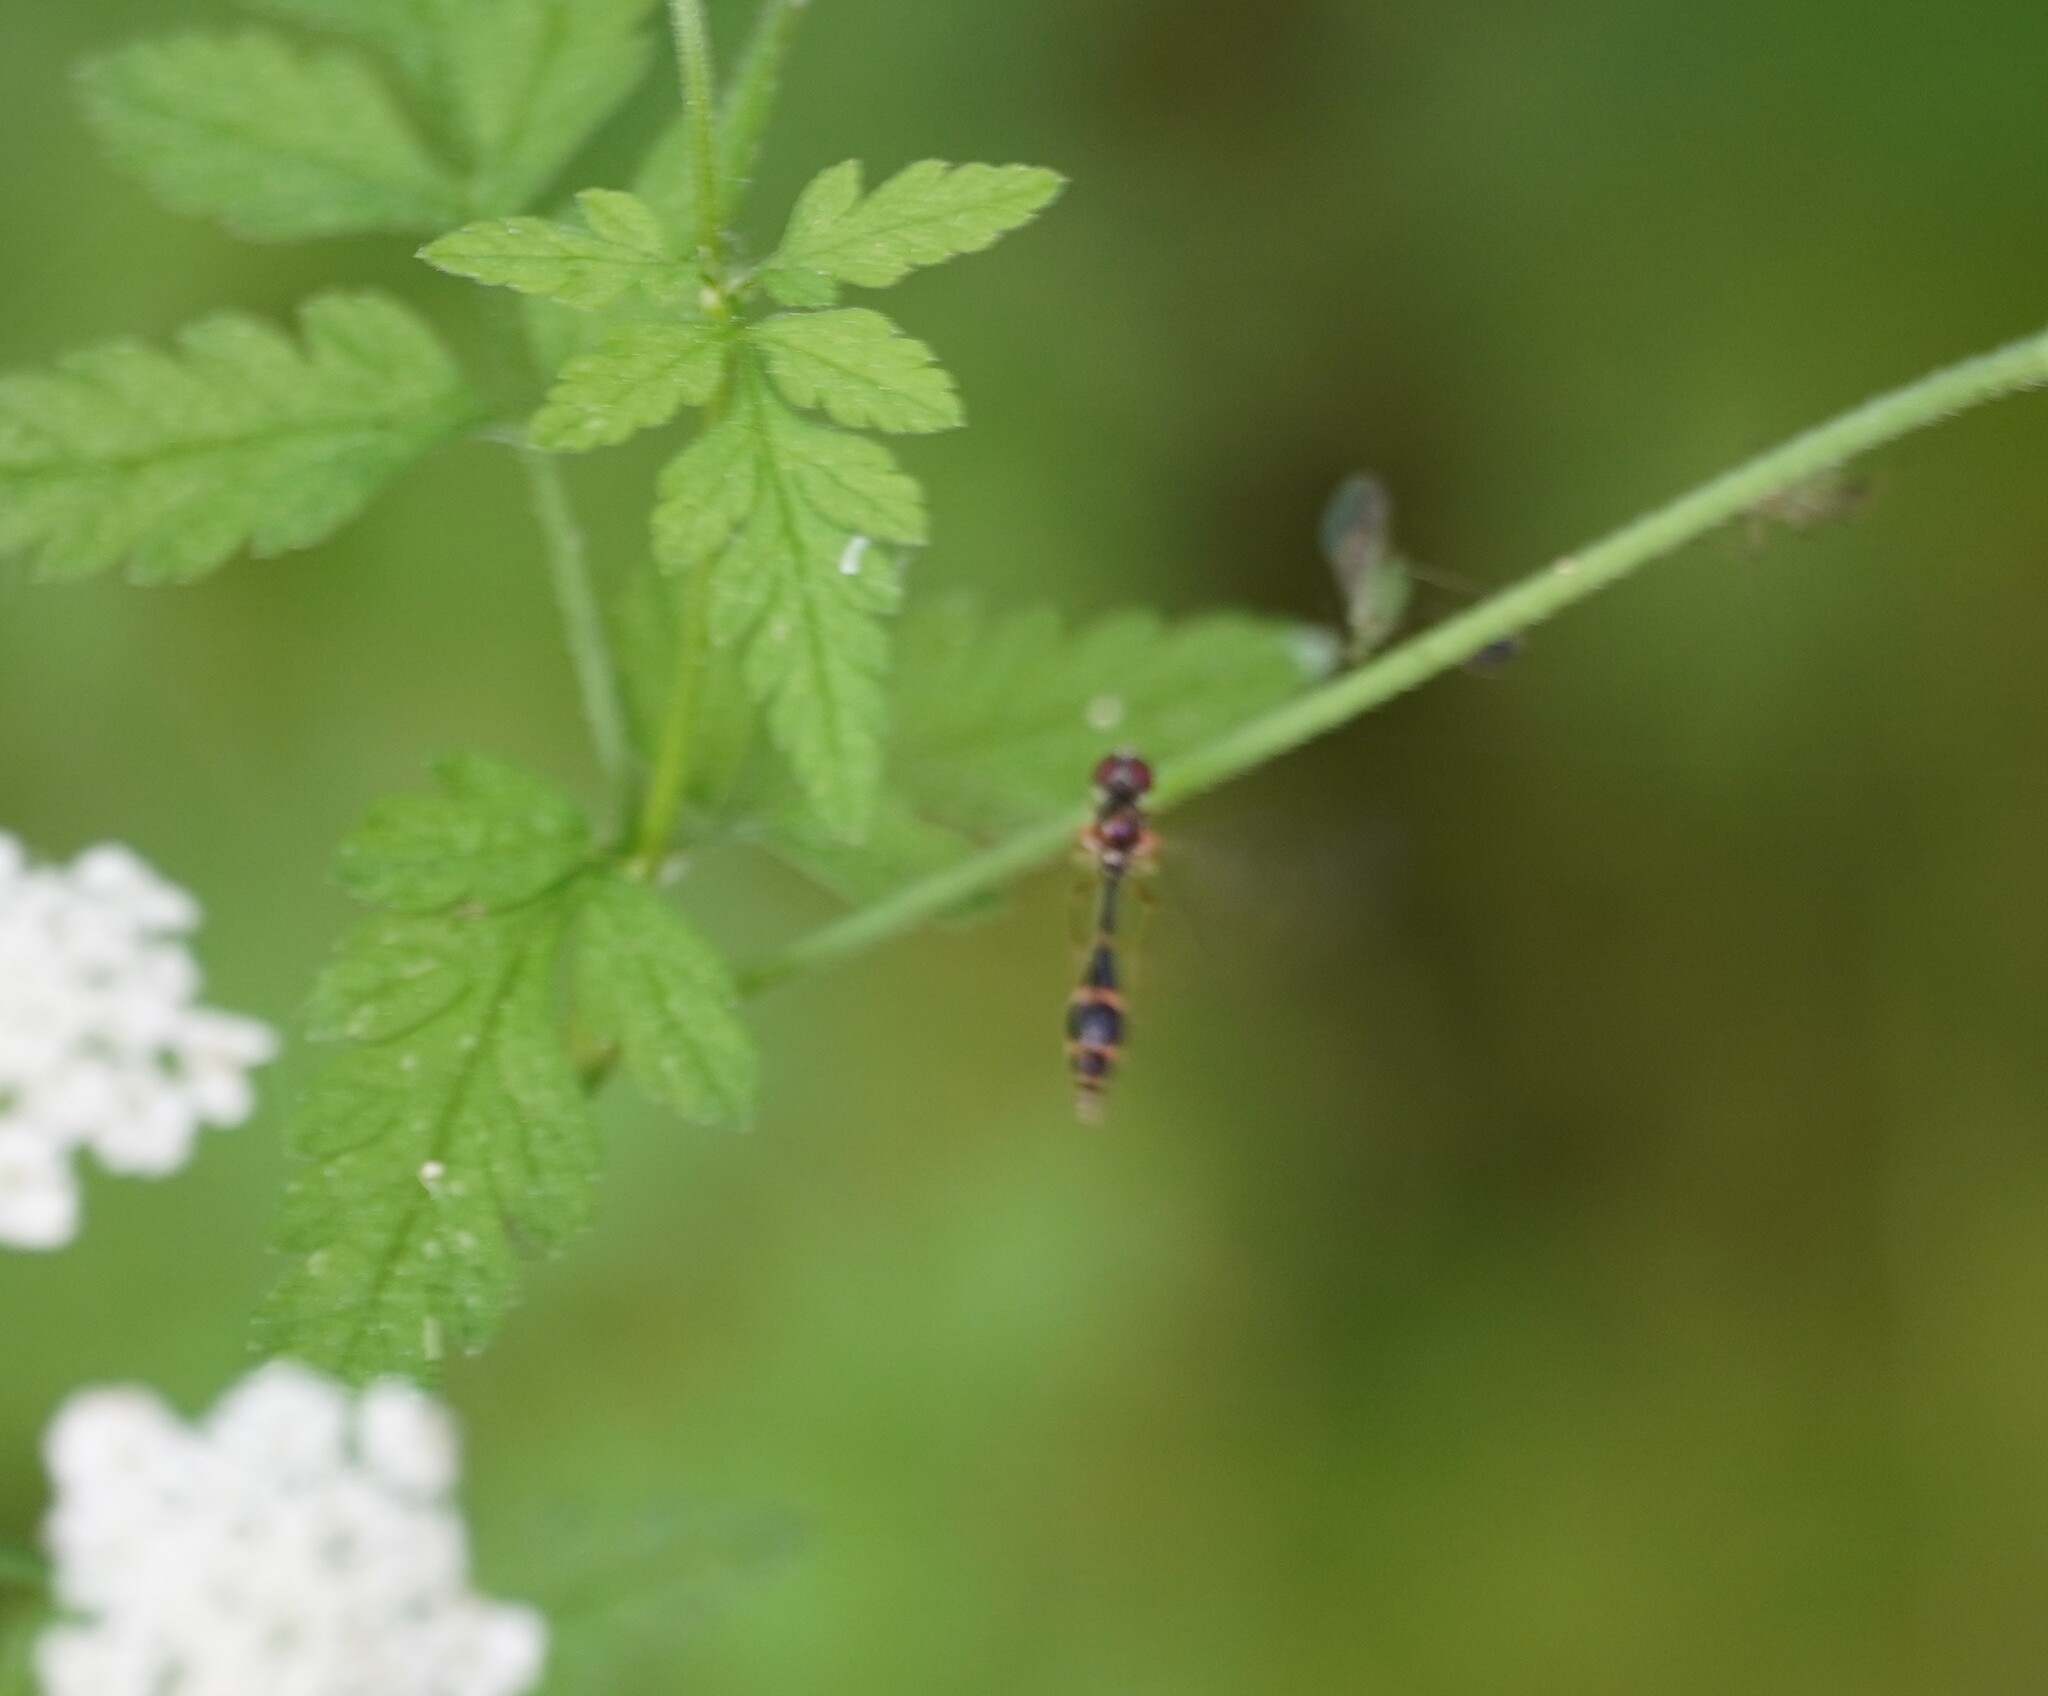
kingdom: Animalia
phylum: Arthropoda
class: Insecta
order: Diptera
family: Syrphidae
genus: Baccha
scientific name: Baccha elongata
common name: Common dainty
